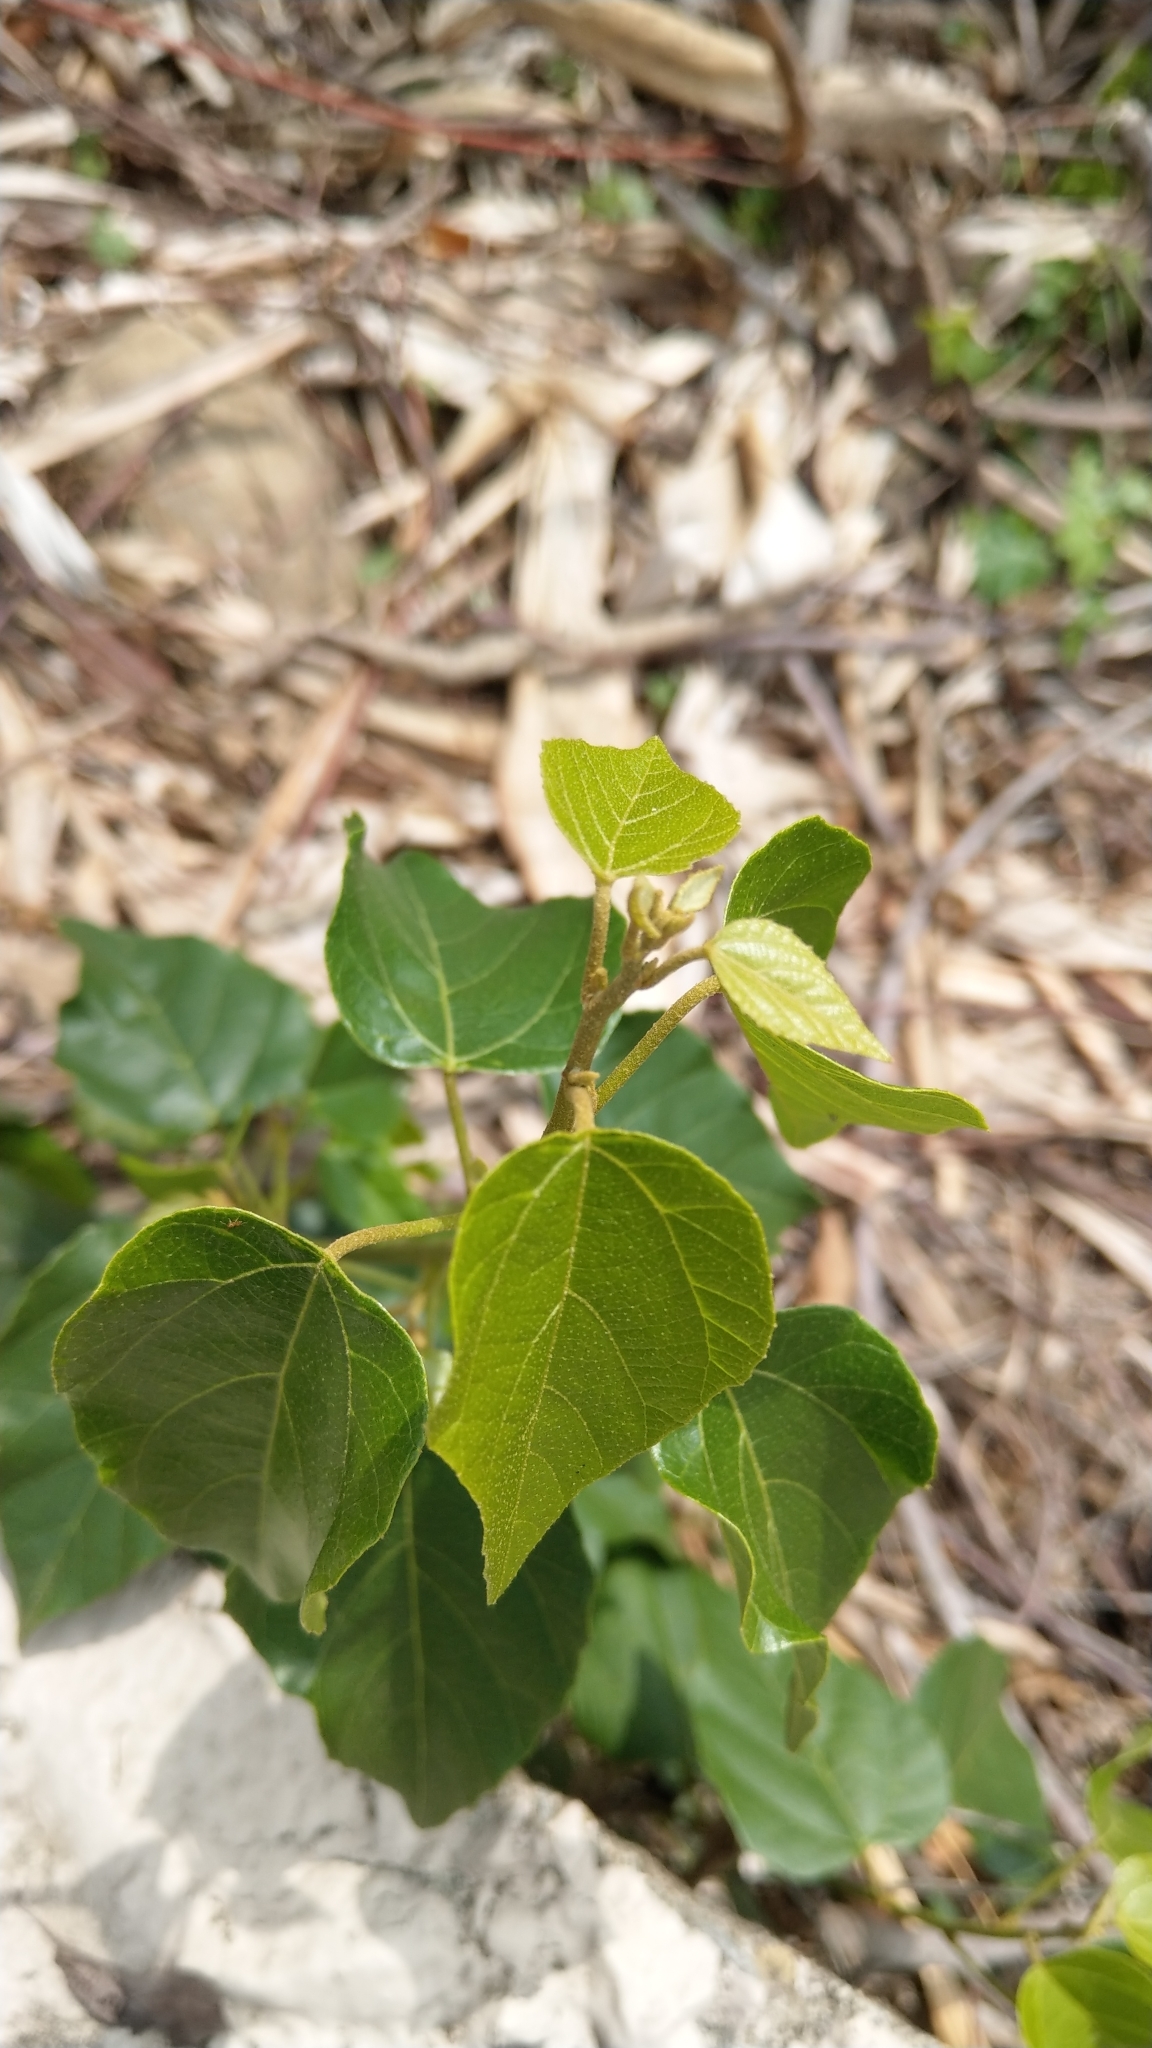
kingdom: Plantae
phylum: Tracheophyta
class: Magnoliopsida
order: Malpighiales
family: Euphorbiaceae
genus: Mallotus
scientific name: Mallotus repandus
